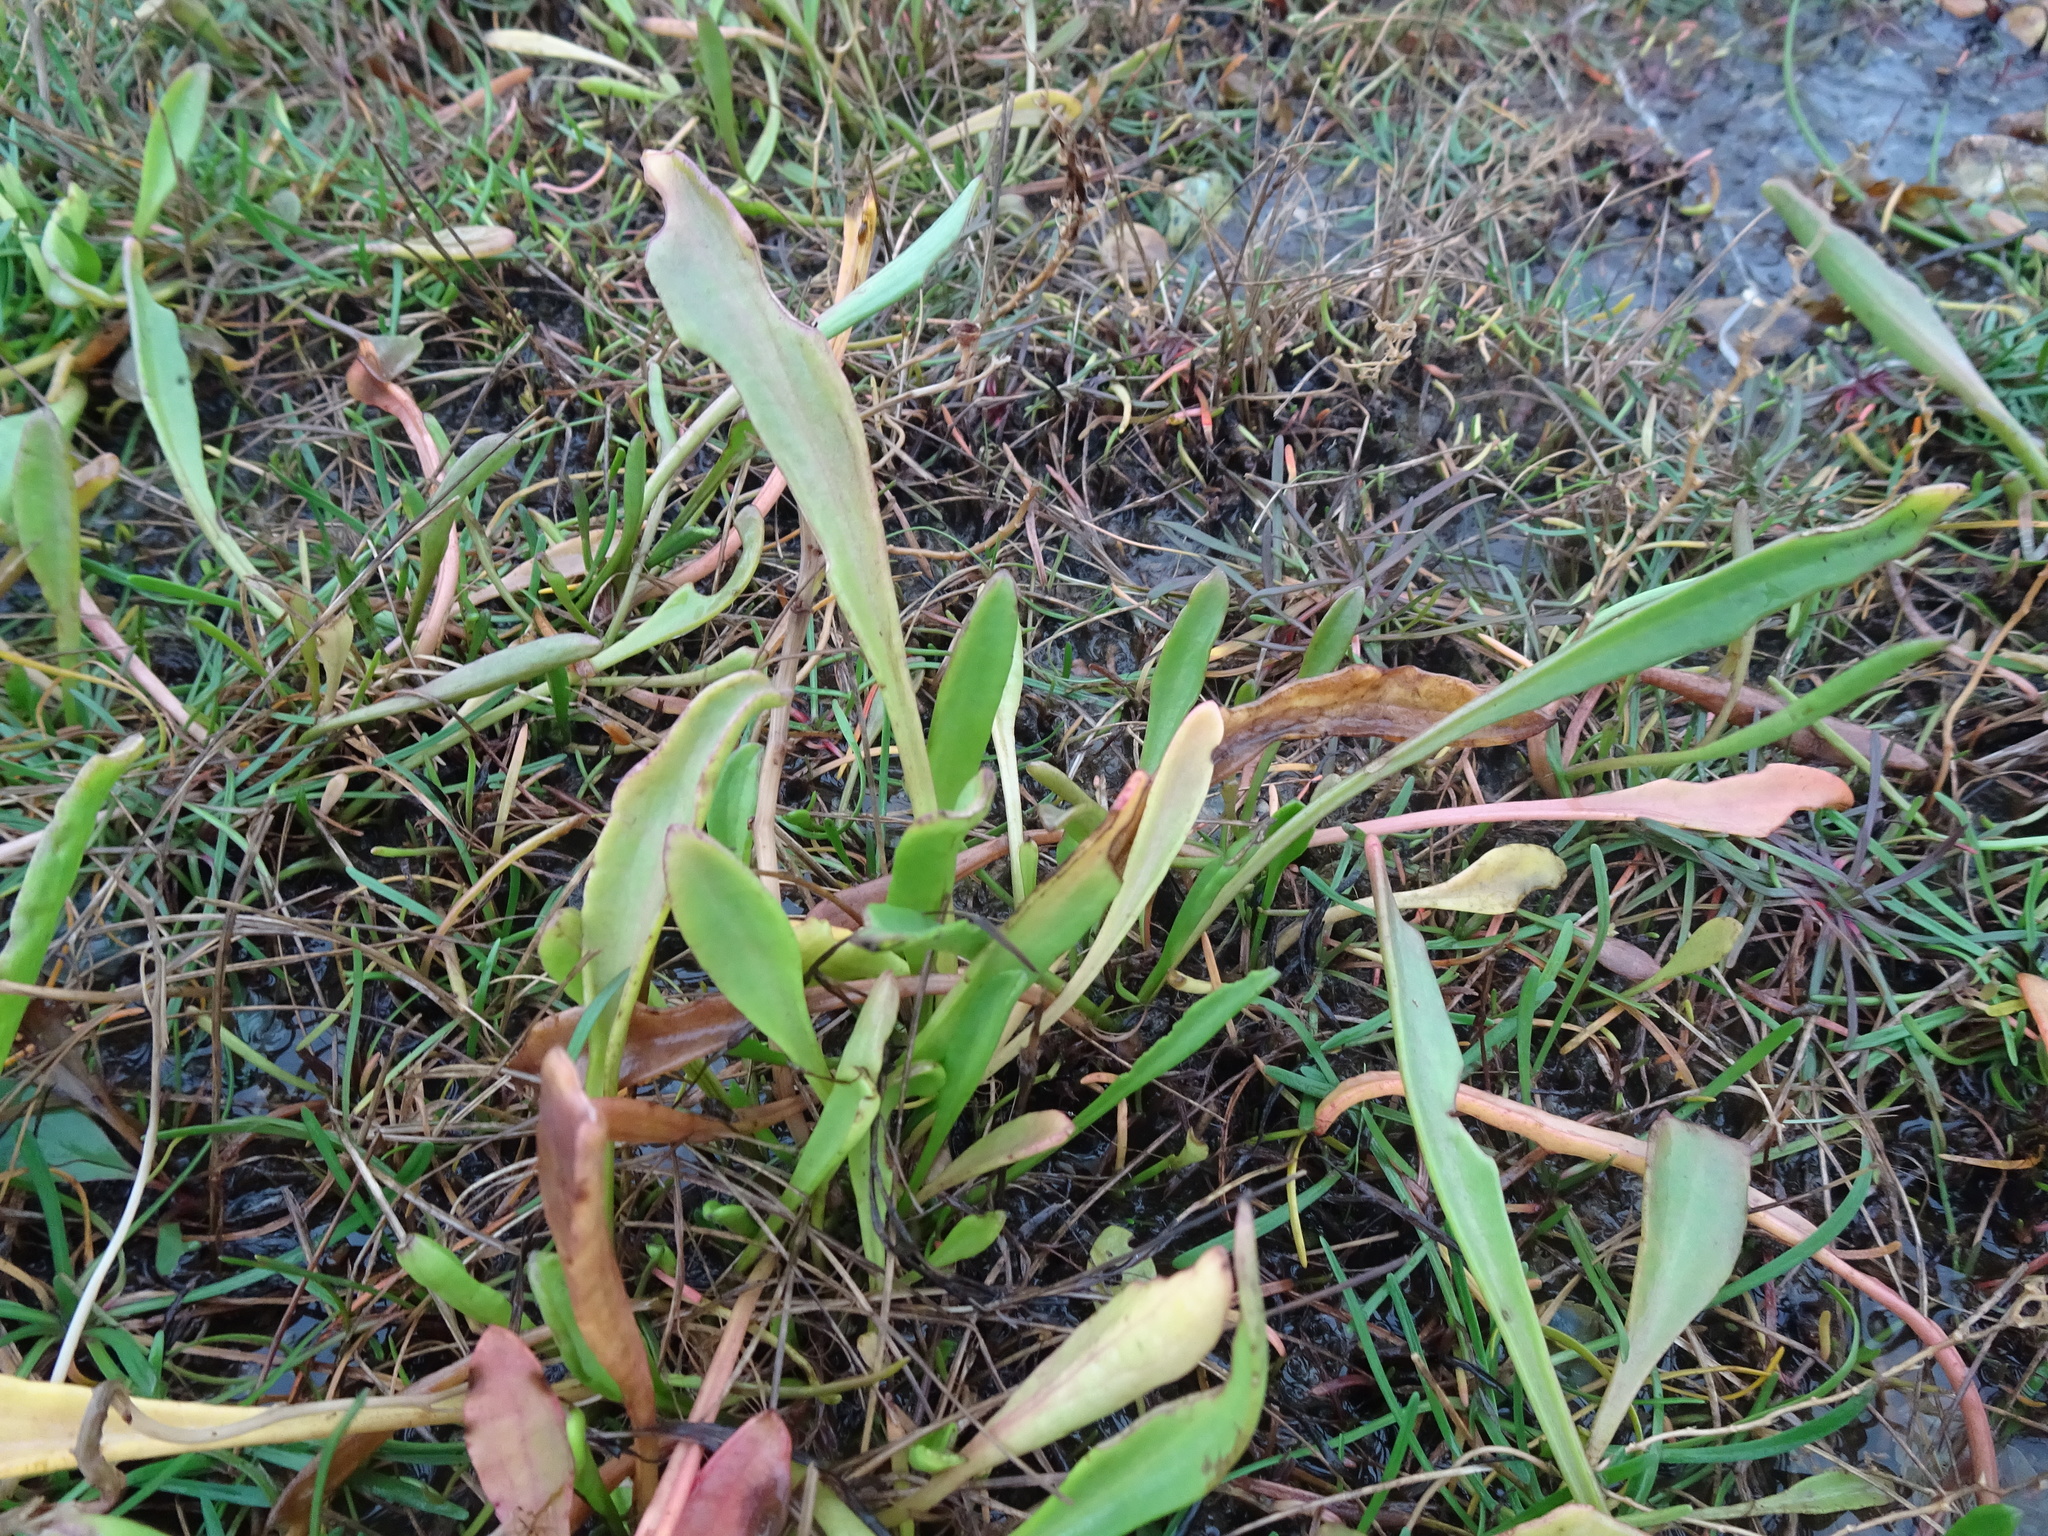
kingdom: Plantae
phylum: Tracheophyta
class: Magnoliopsida
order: Asterales
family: Asteraceae
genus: Tripolium
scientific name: Tripolium pannonicum
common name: Sea aster
